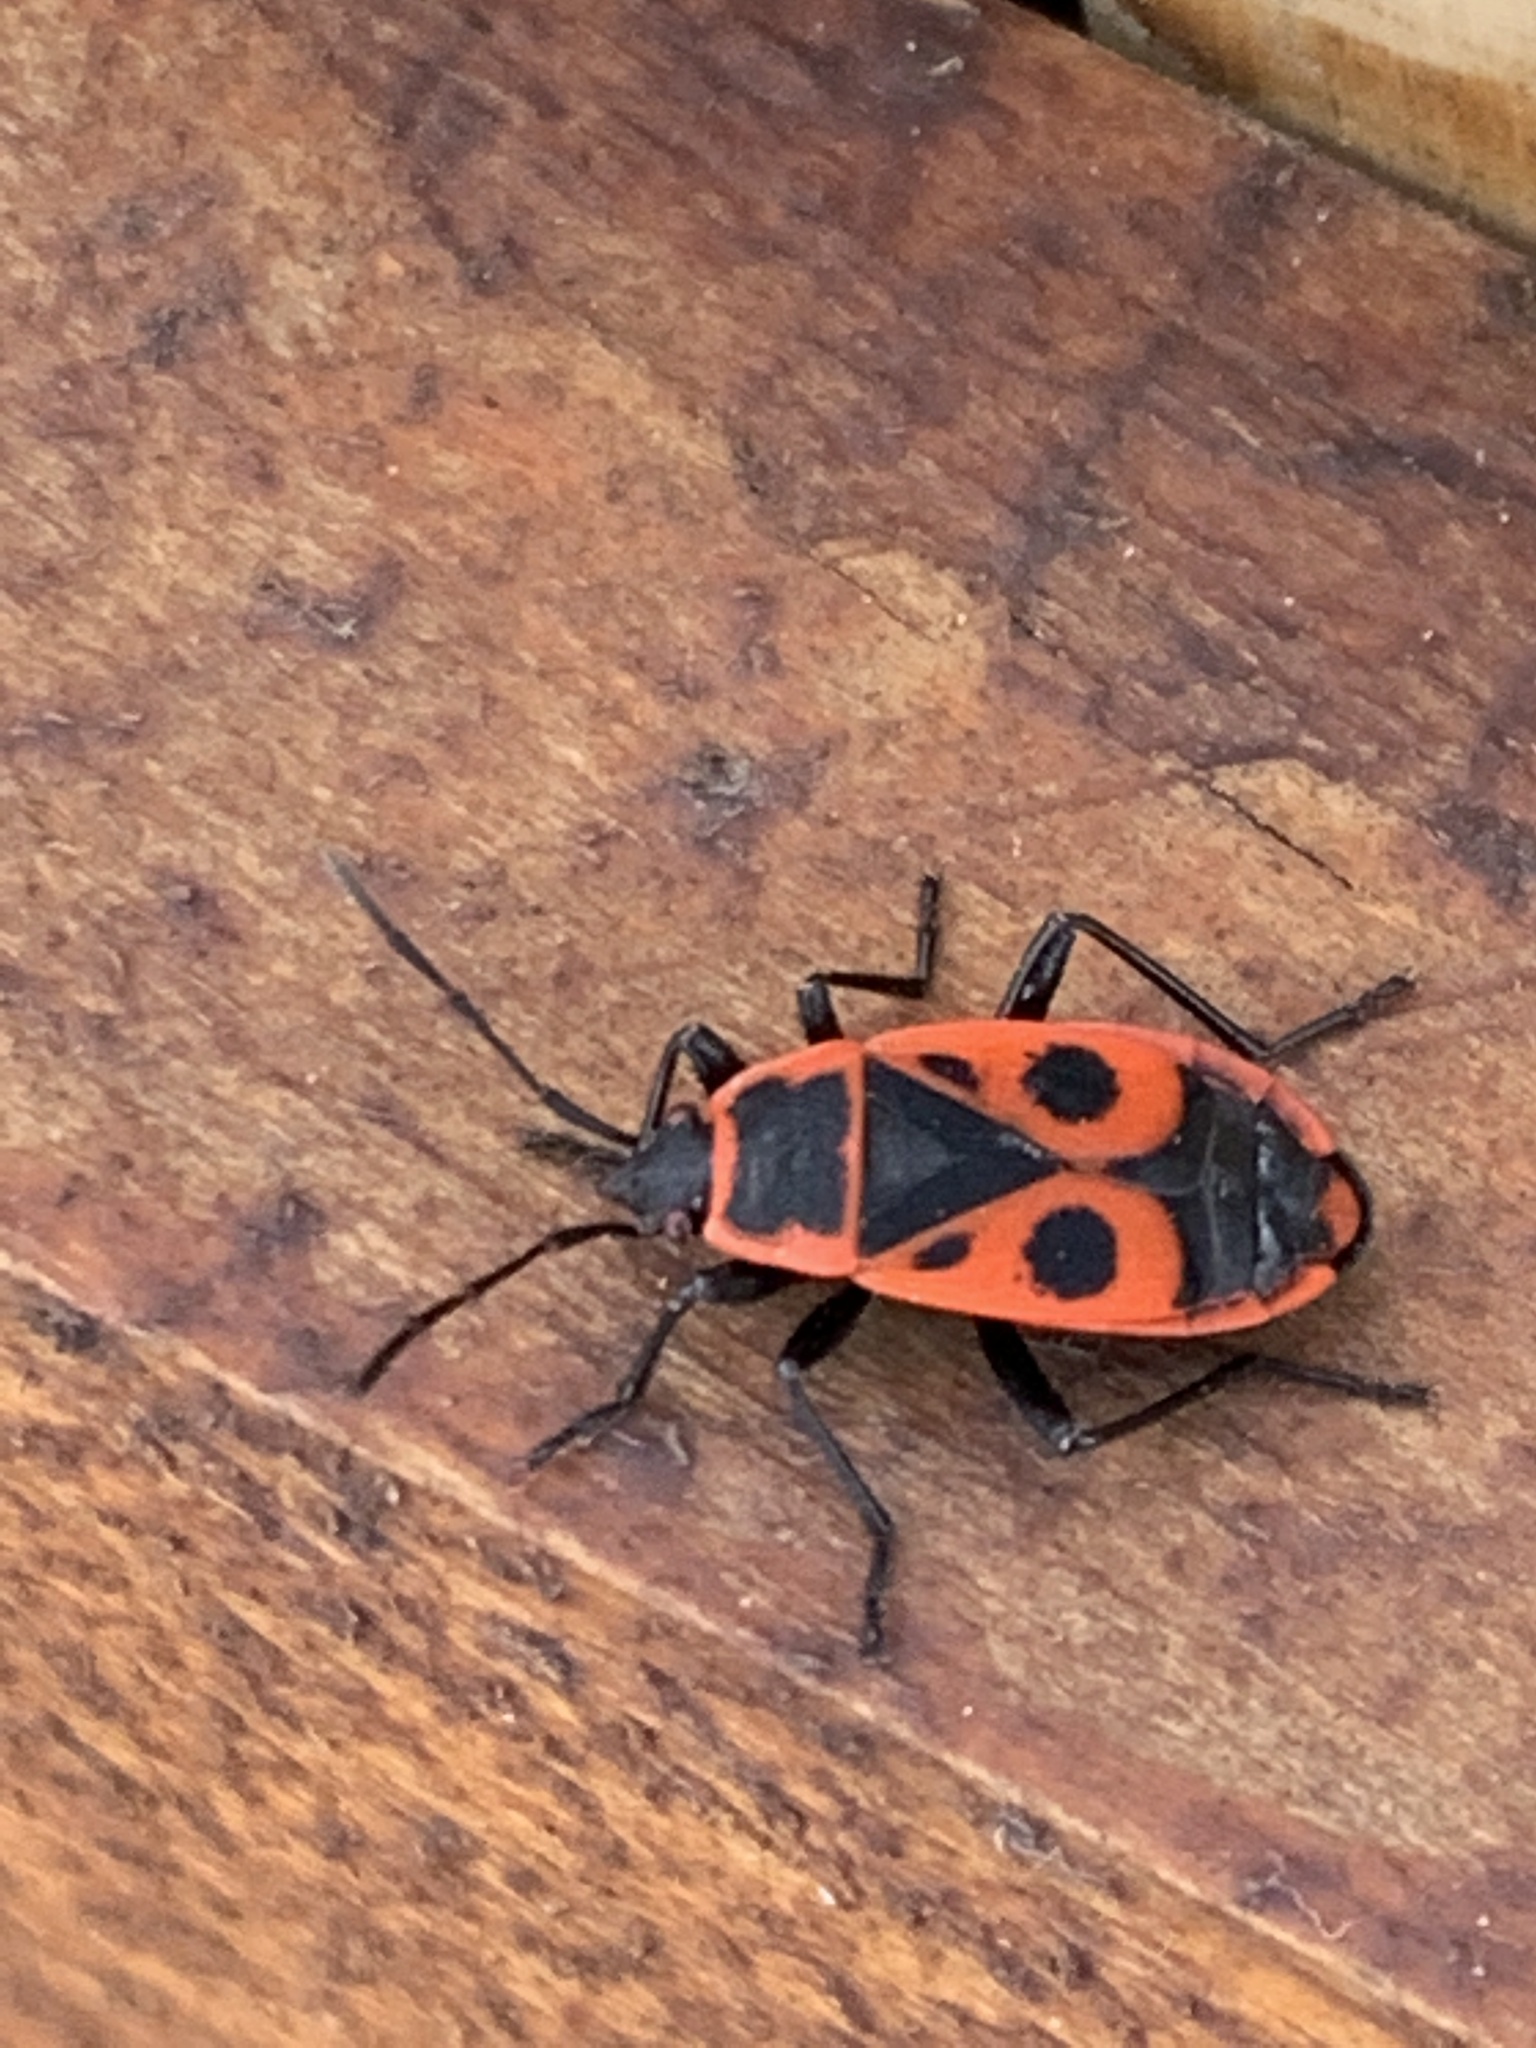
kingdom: Animalia
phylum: Arthropoda
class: Insecta
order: Hemiptera
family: Pyrrhocoridae
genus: Pyrrhocoris
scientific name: Pyrrhocoris apterus
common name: Firebug
